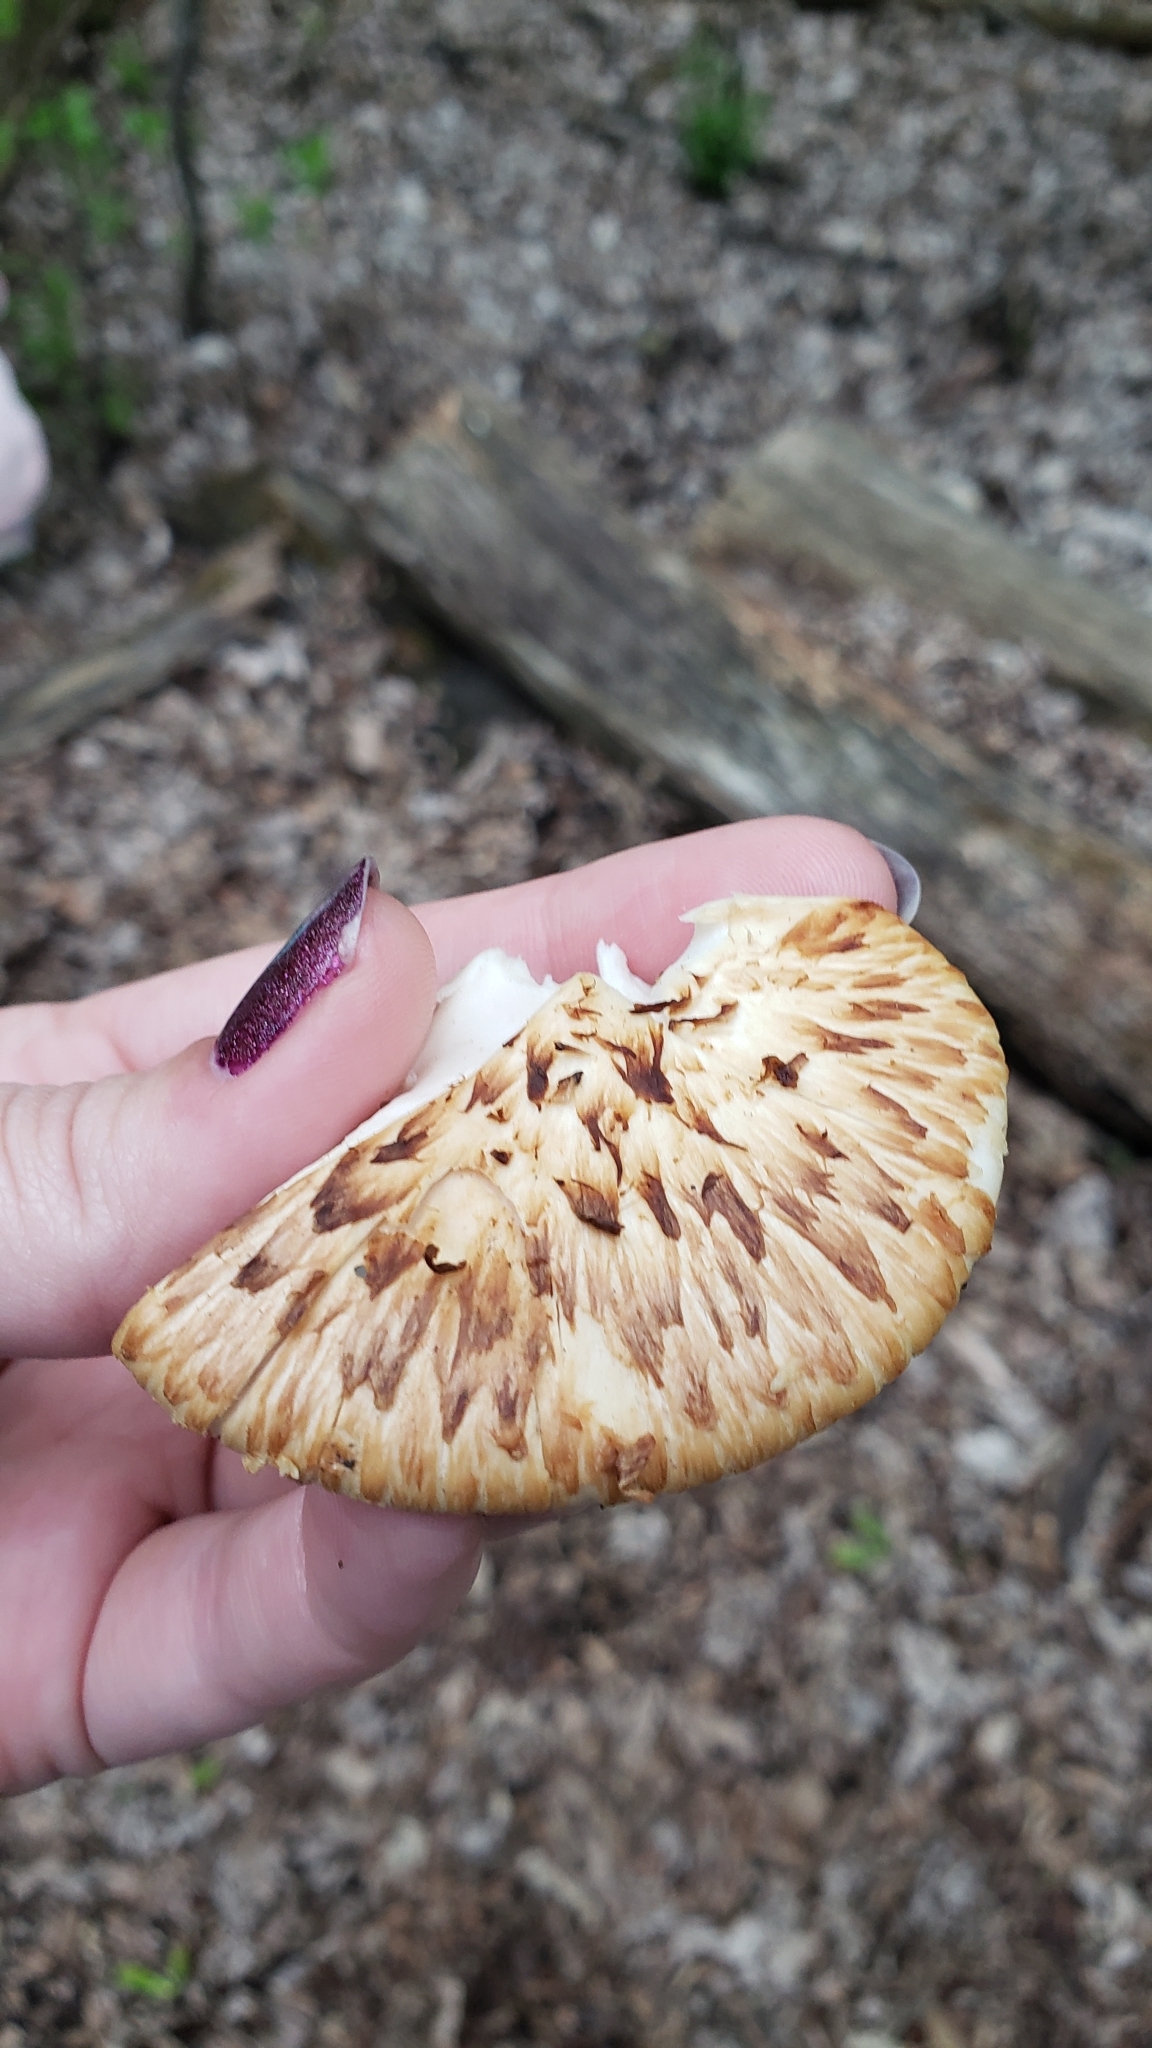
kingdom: Fungi
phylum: Basidiomycota
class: Agaricomycetes
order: Polyporales
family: Polyporaceae
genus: Cerioporus
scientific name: Cerioporus squamosus
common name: Dryad's saddle
